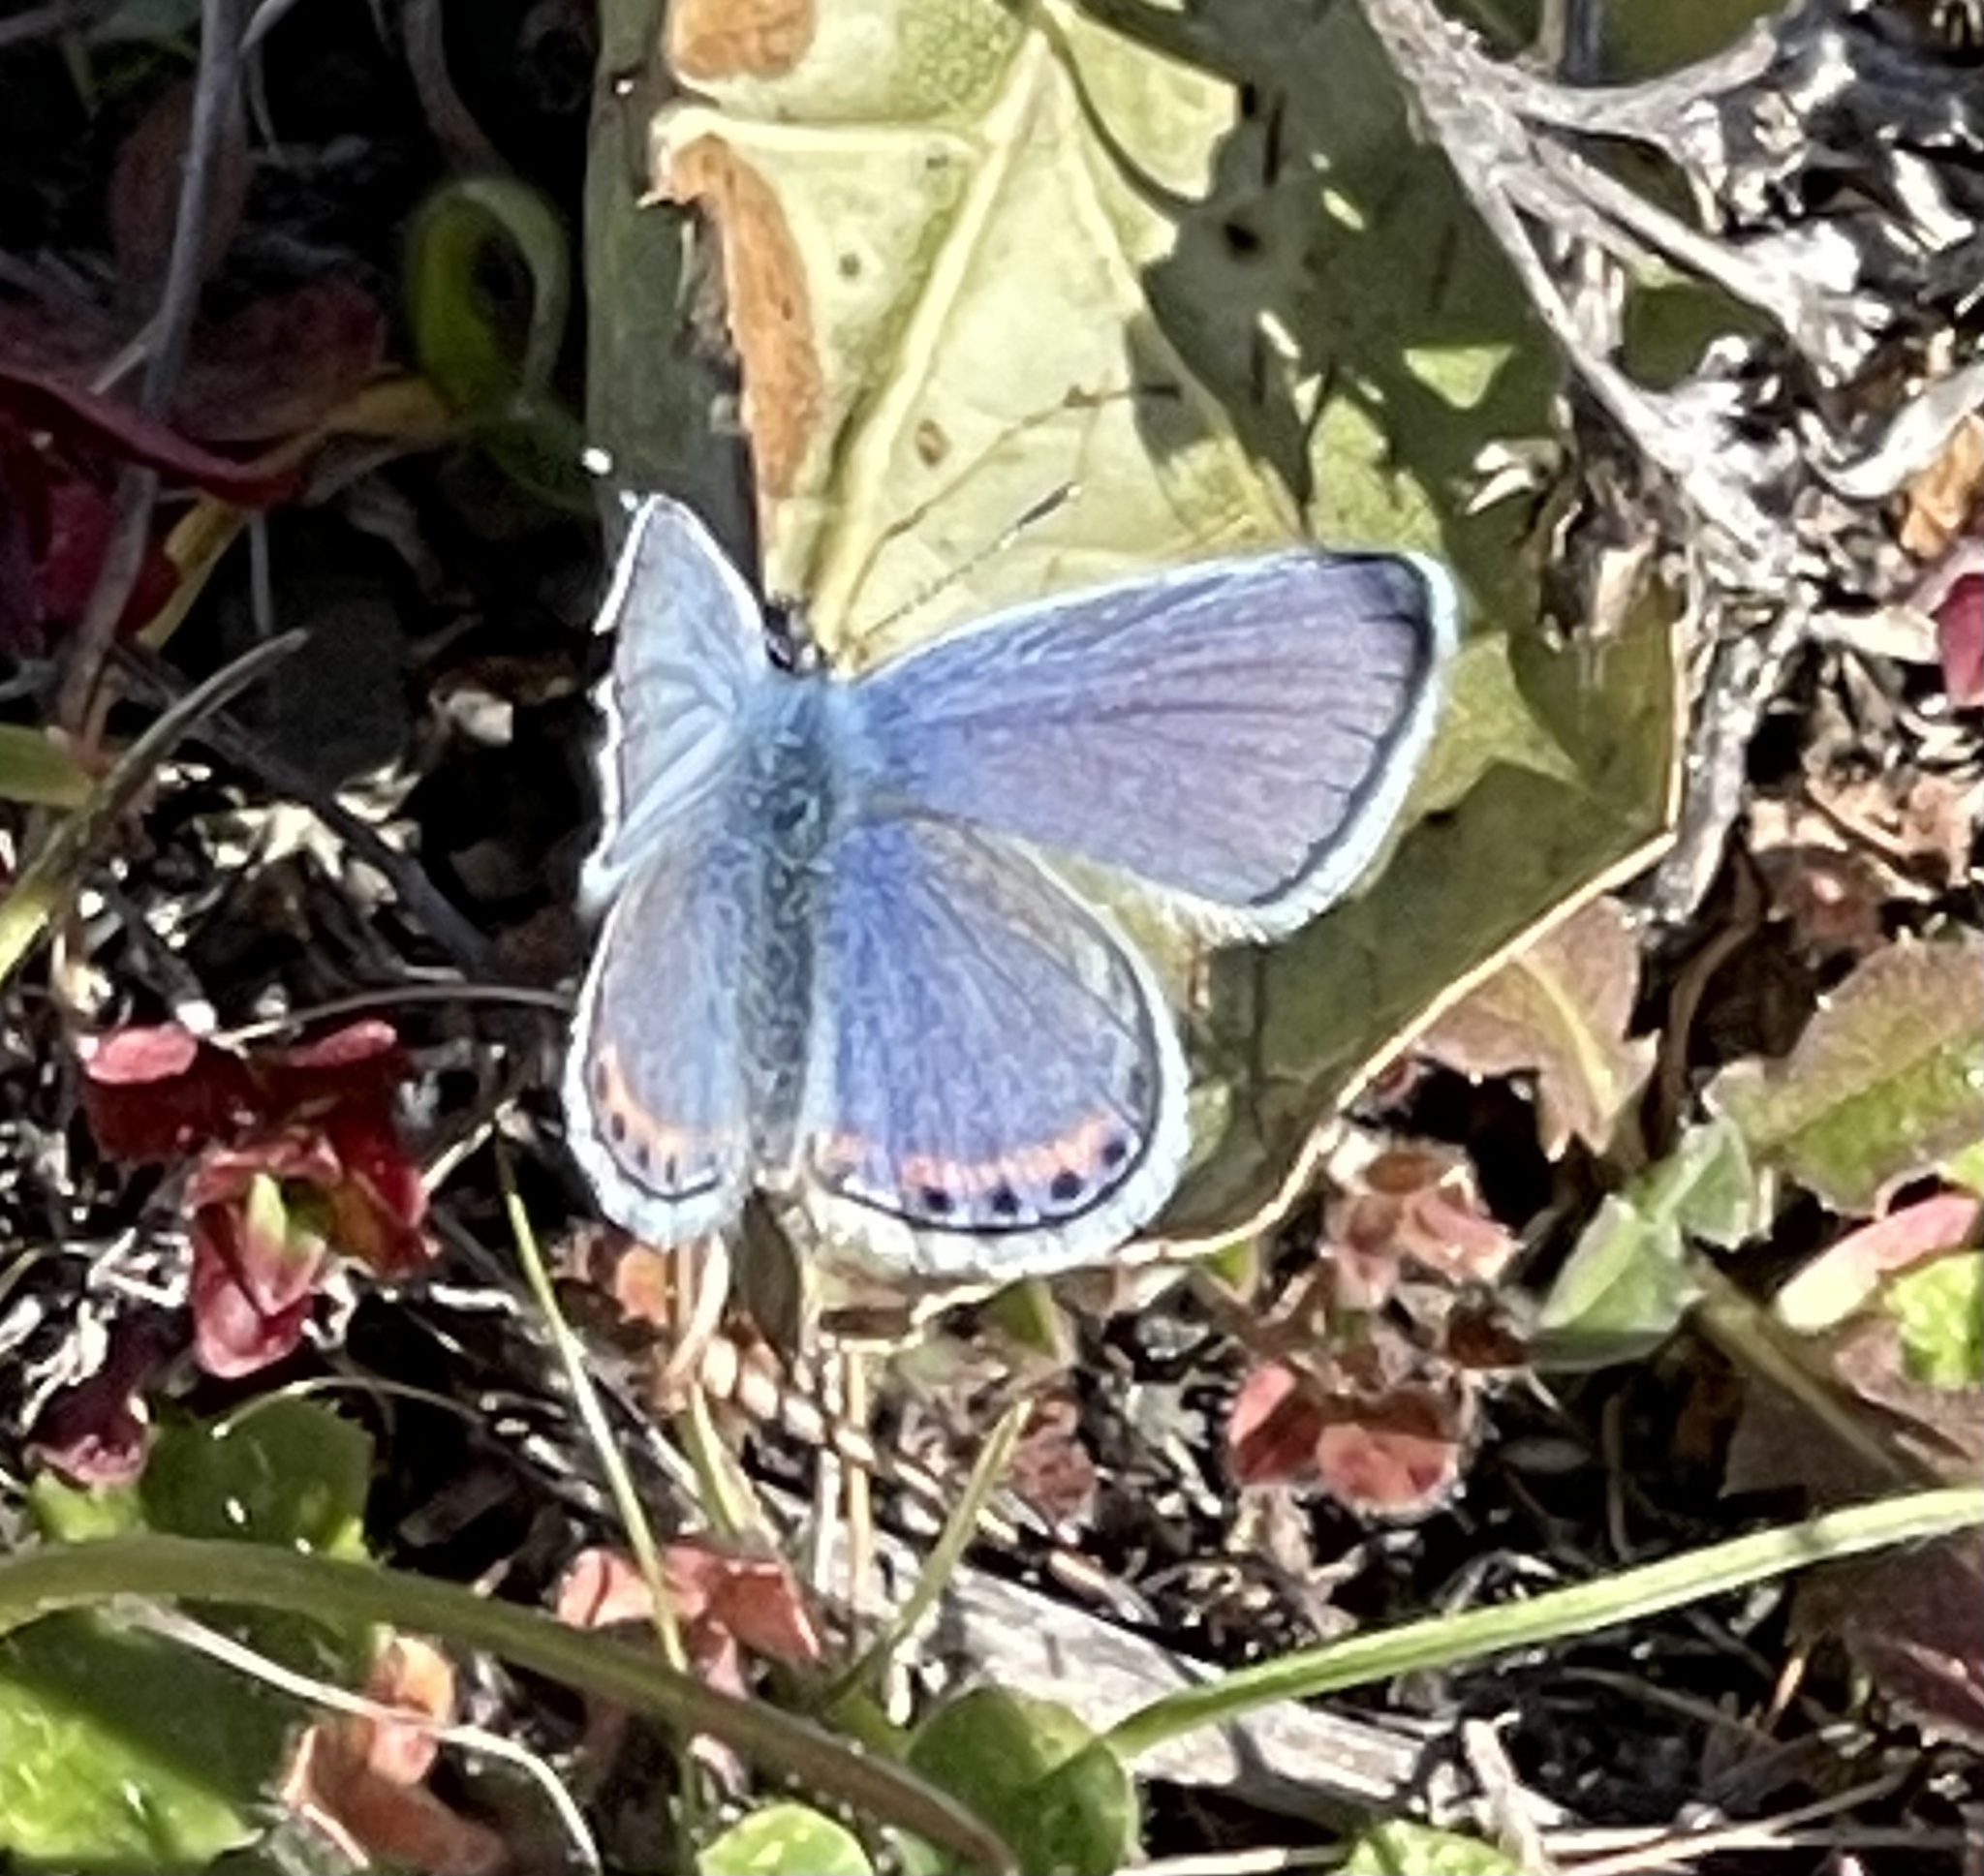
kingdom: Animalia
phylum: Arthropoda
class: Insecta
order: Lepidoptera
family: Lycaenidae
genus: Icaricia
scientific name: Icaricia acmon
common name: Acmon blue
